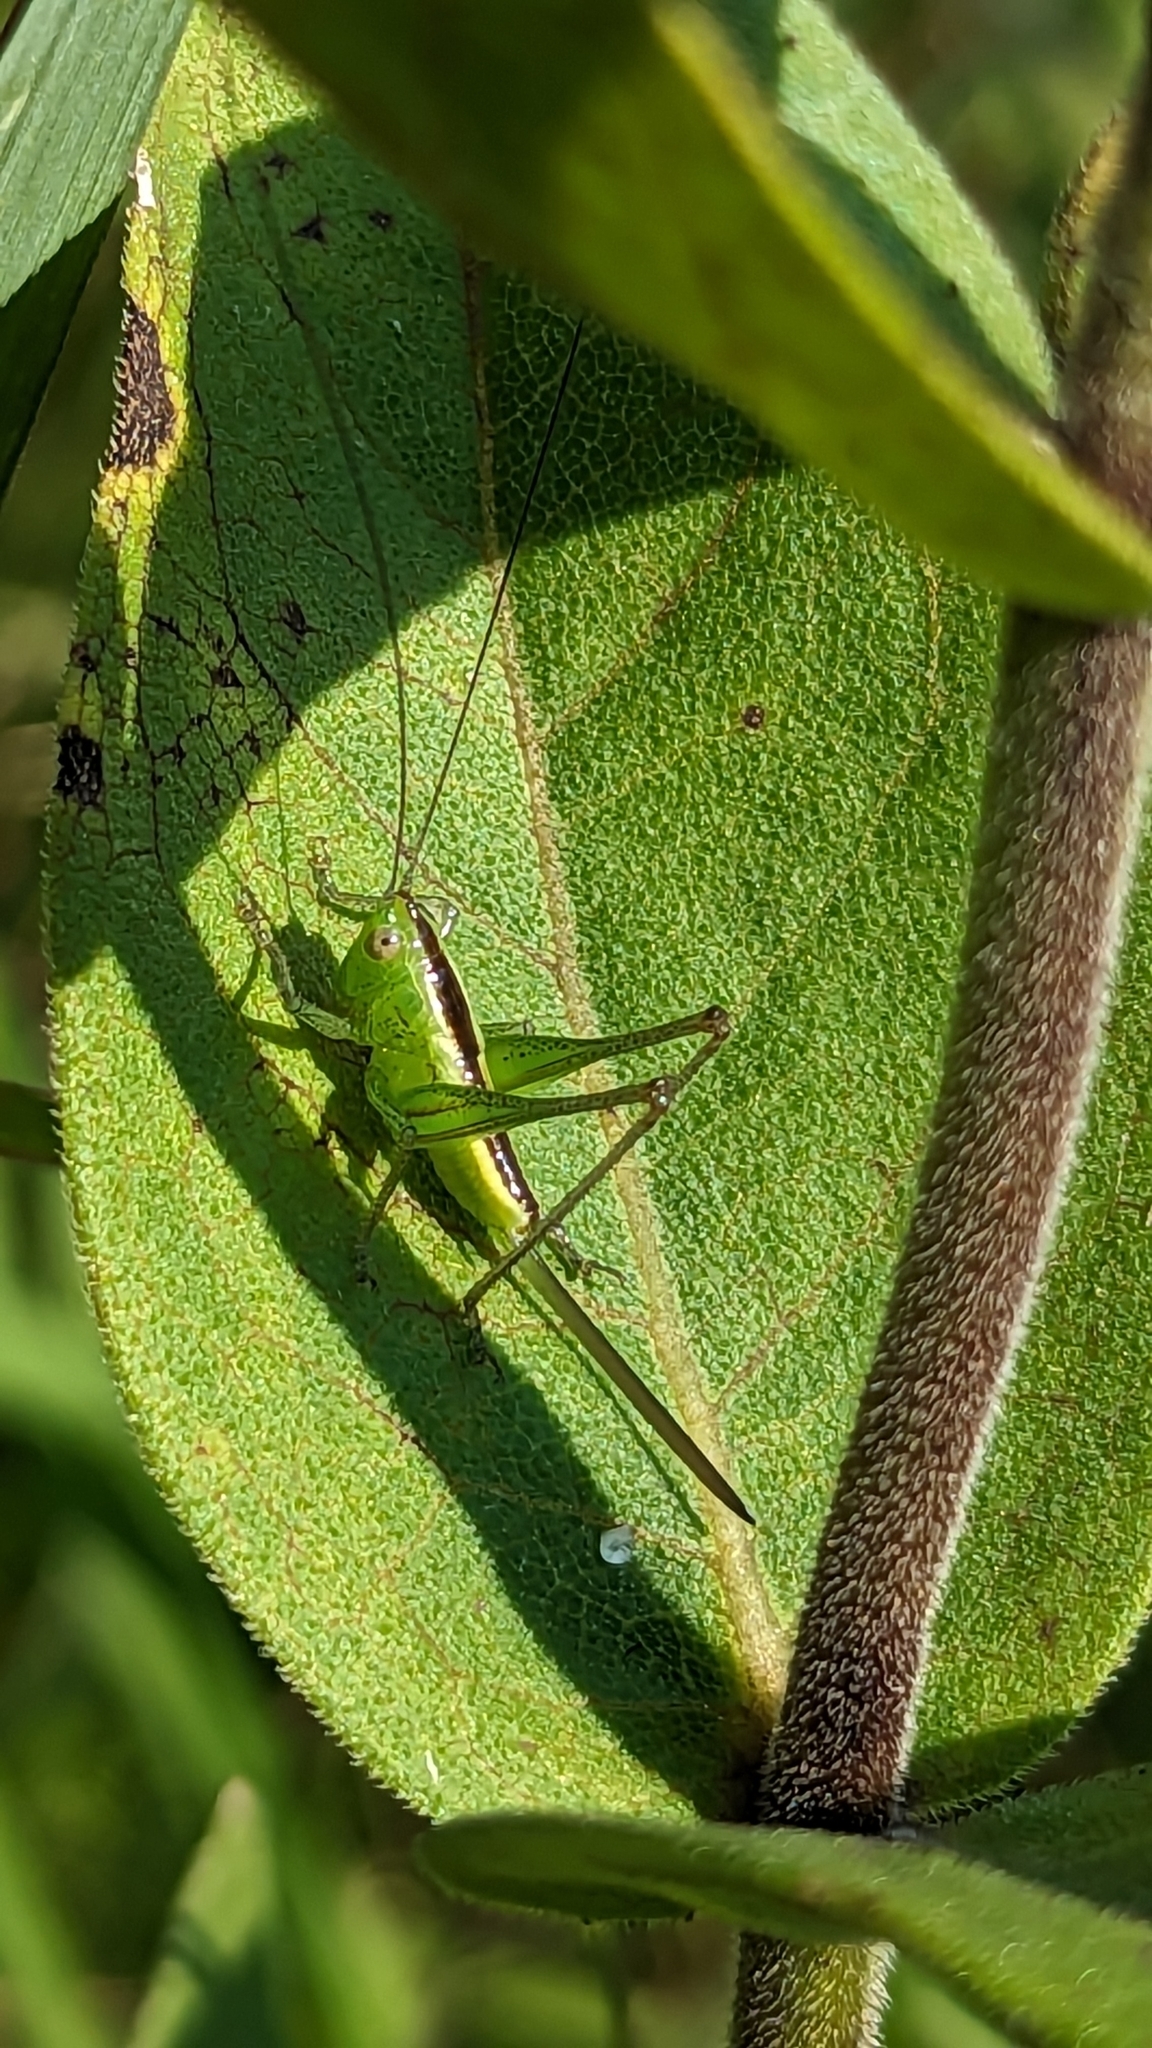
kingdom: Animalia
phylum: Arthropoda
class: Insecta
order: Orthoptera
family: Tettigoniidae
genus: Conocephalus
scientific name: Conocephalus
